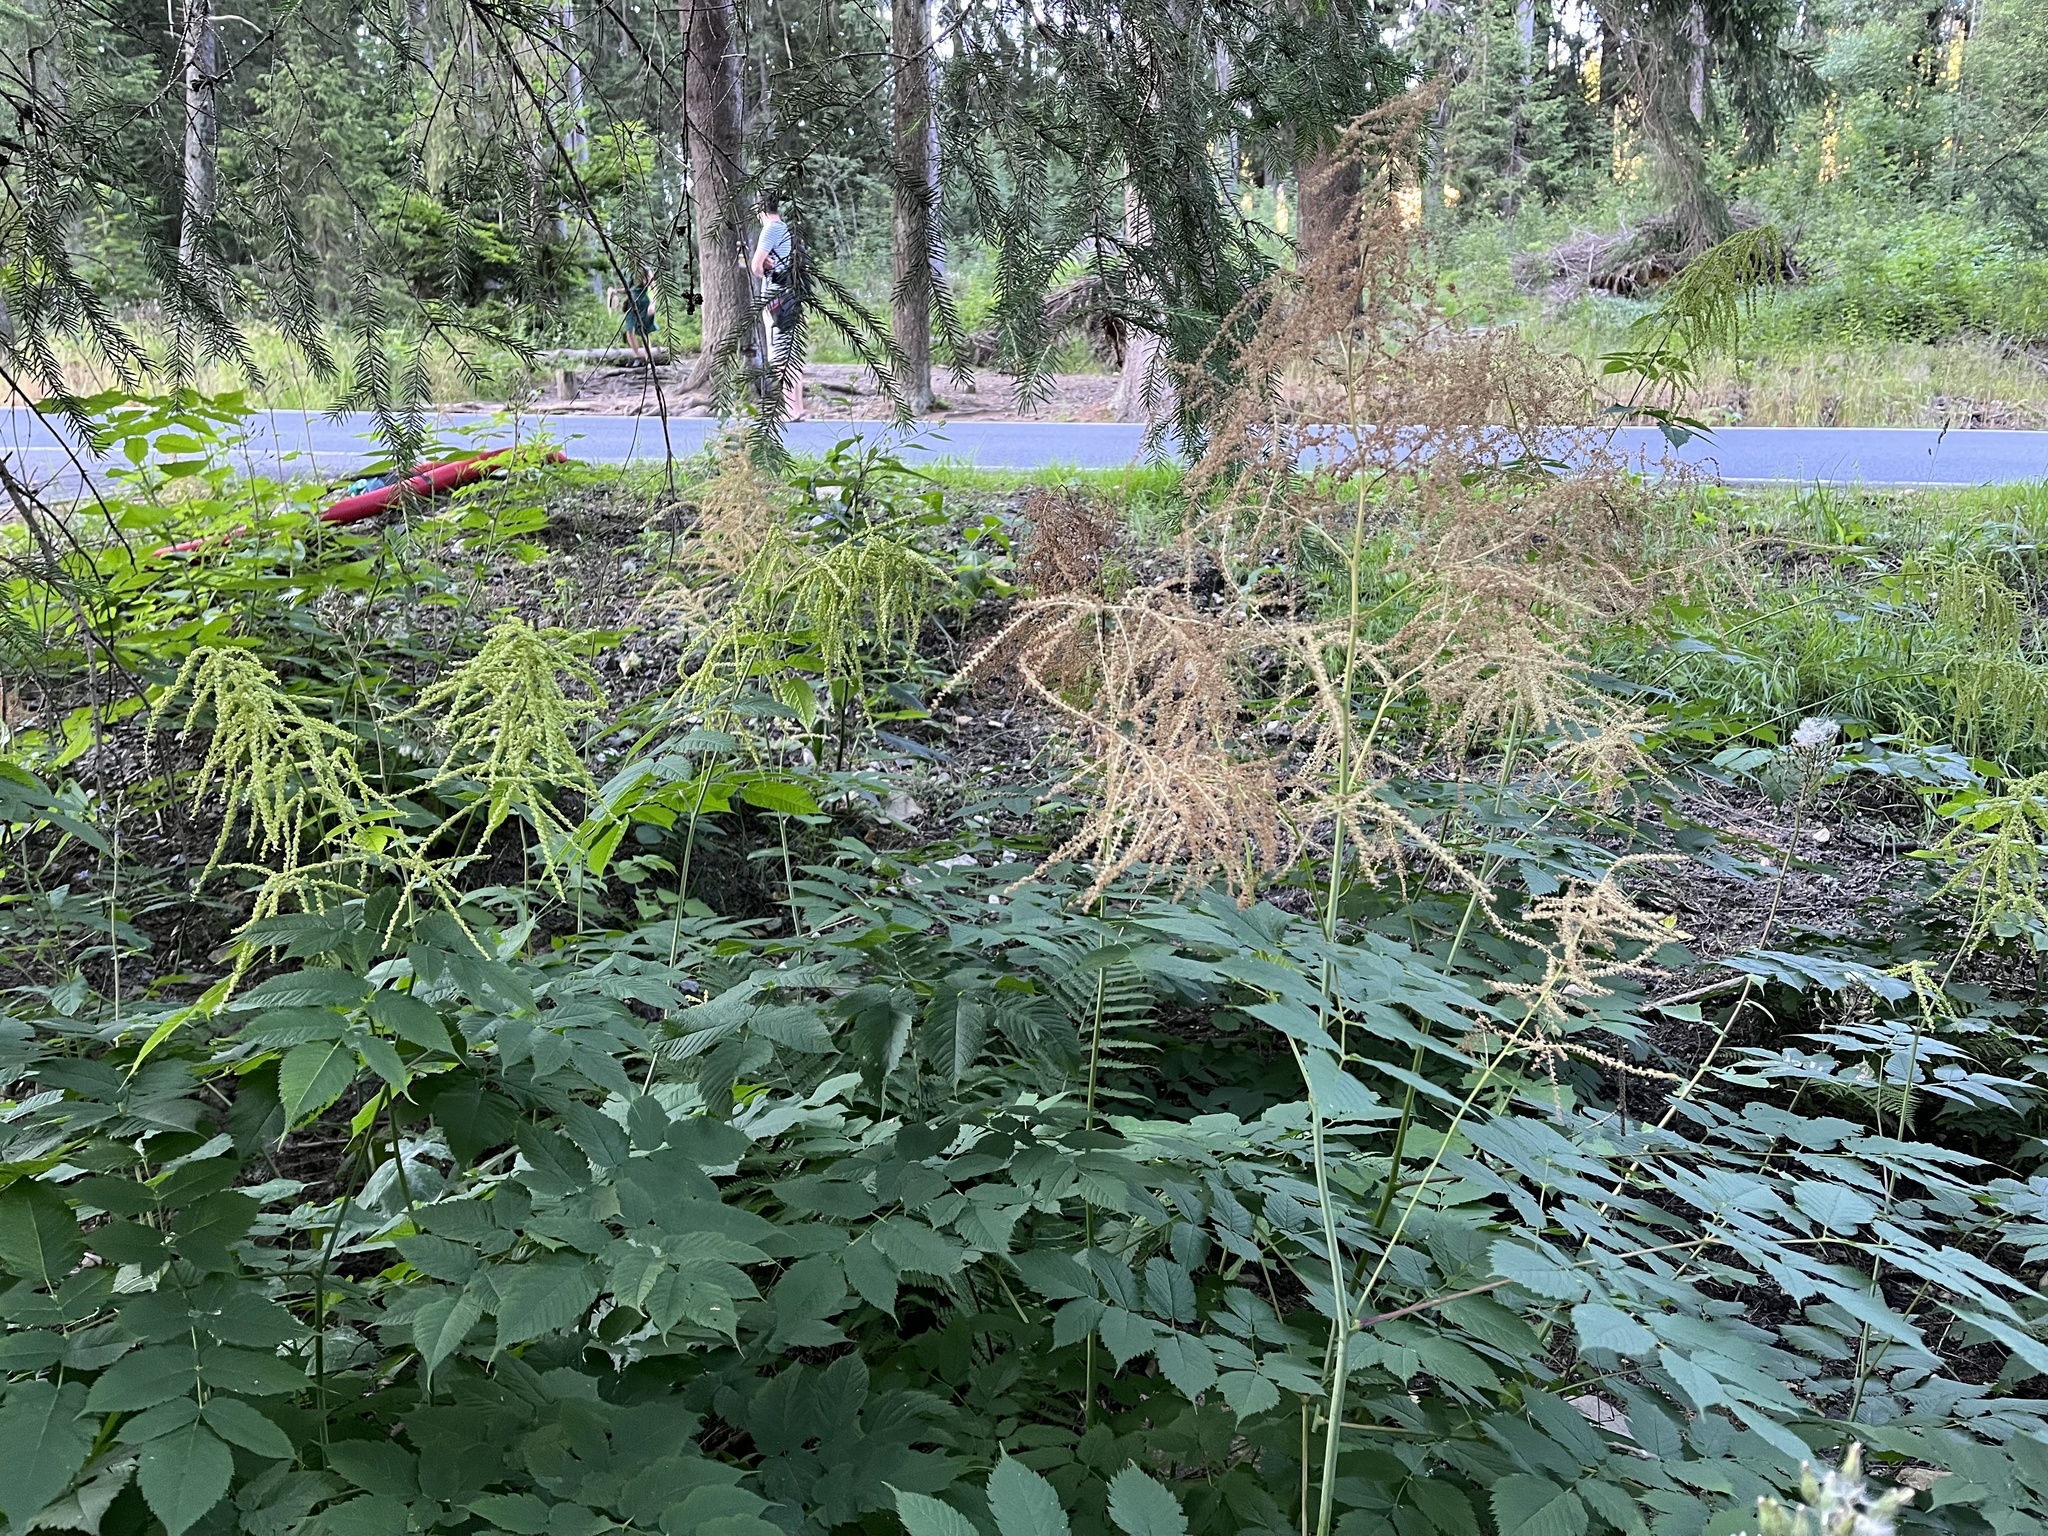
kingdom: Plantae
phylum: Tracheophyta
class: Magnoliopsida
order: Rosales
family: Rosaceae
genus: Aruncus
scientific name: Aruncus dioicus
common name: Buck's-beard
